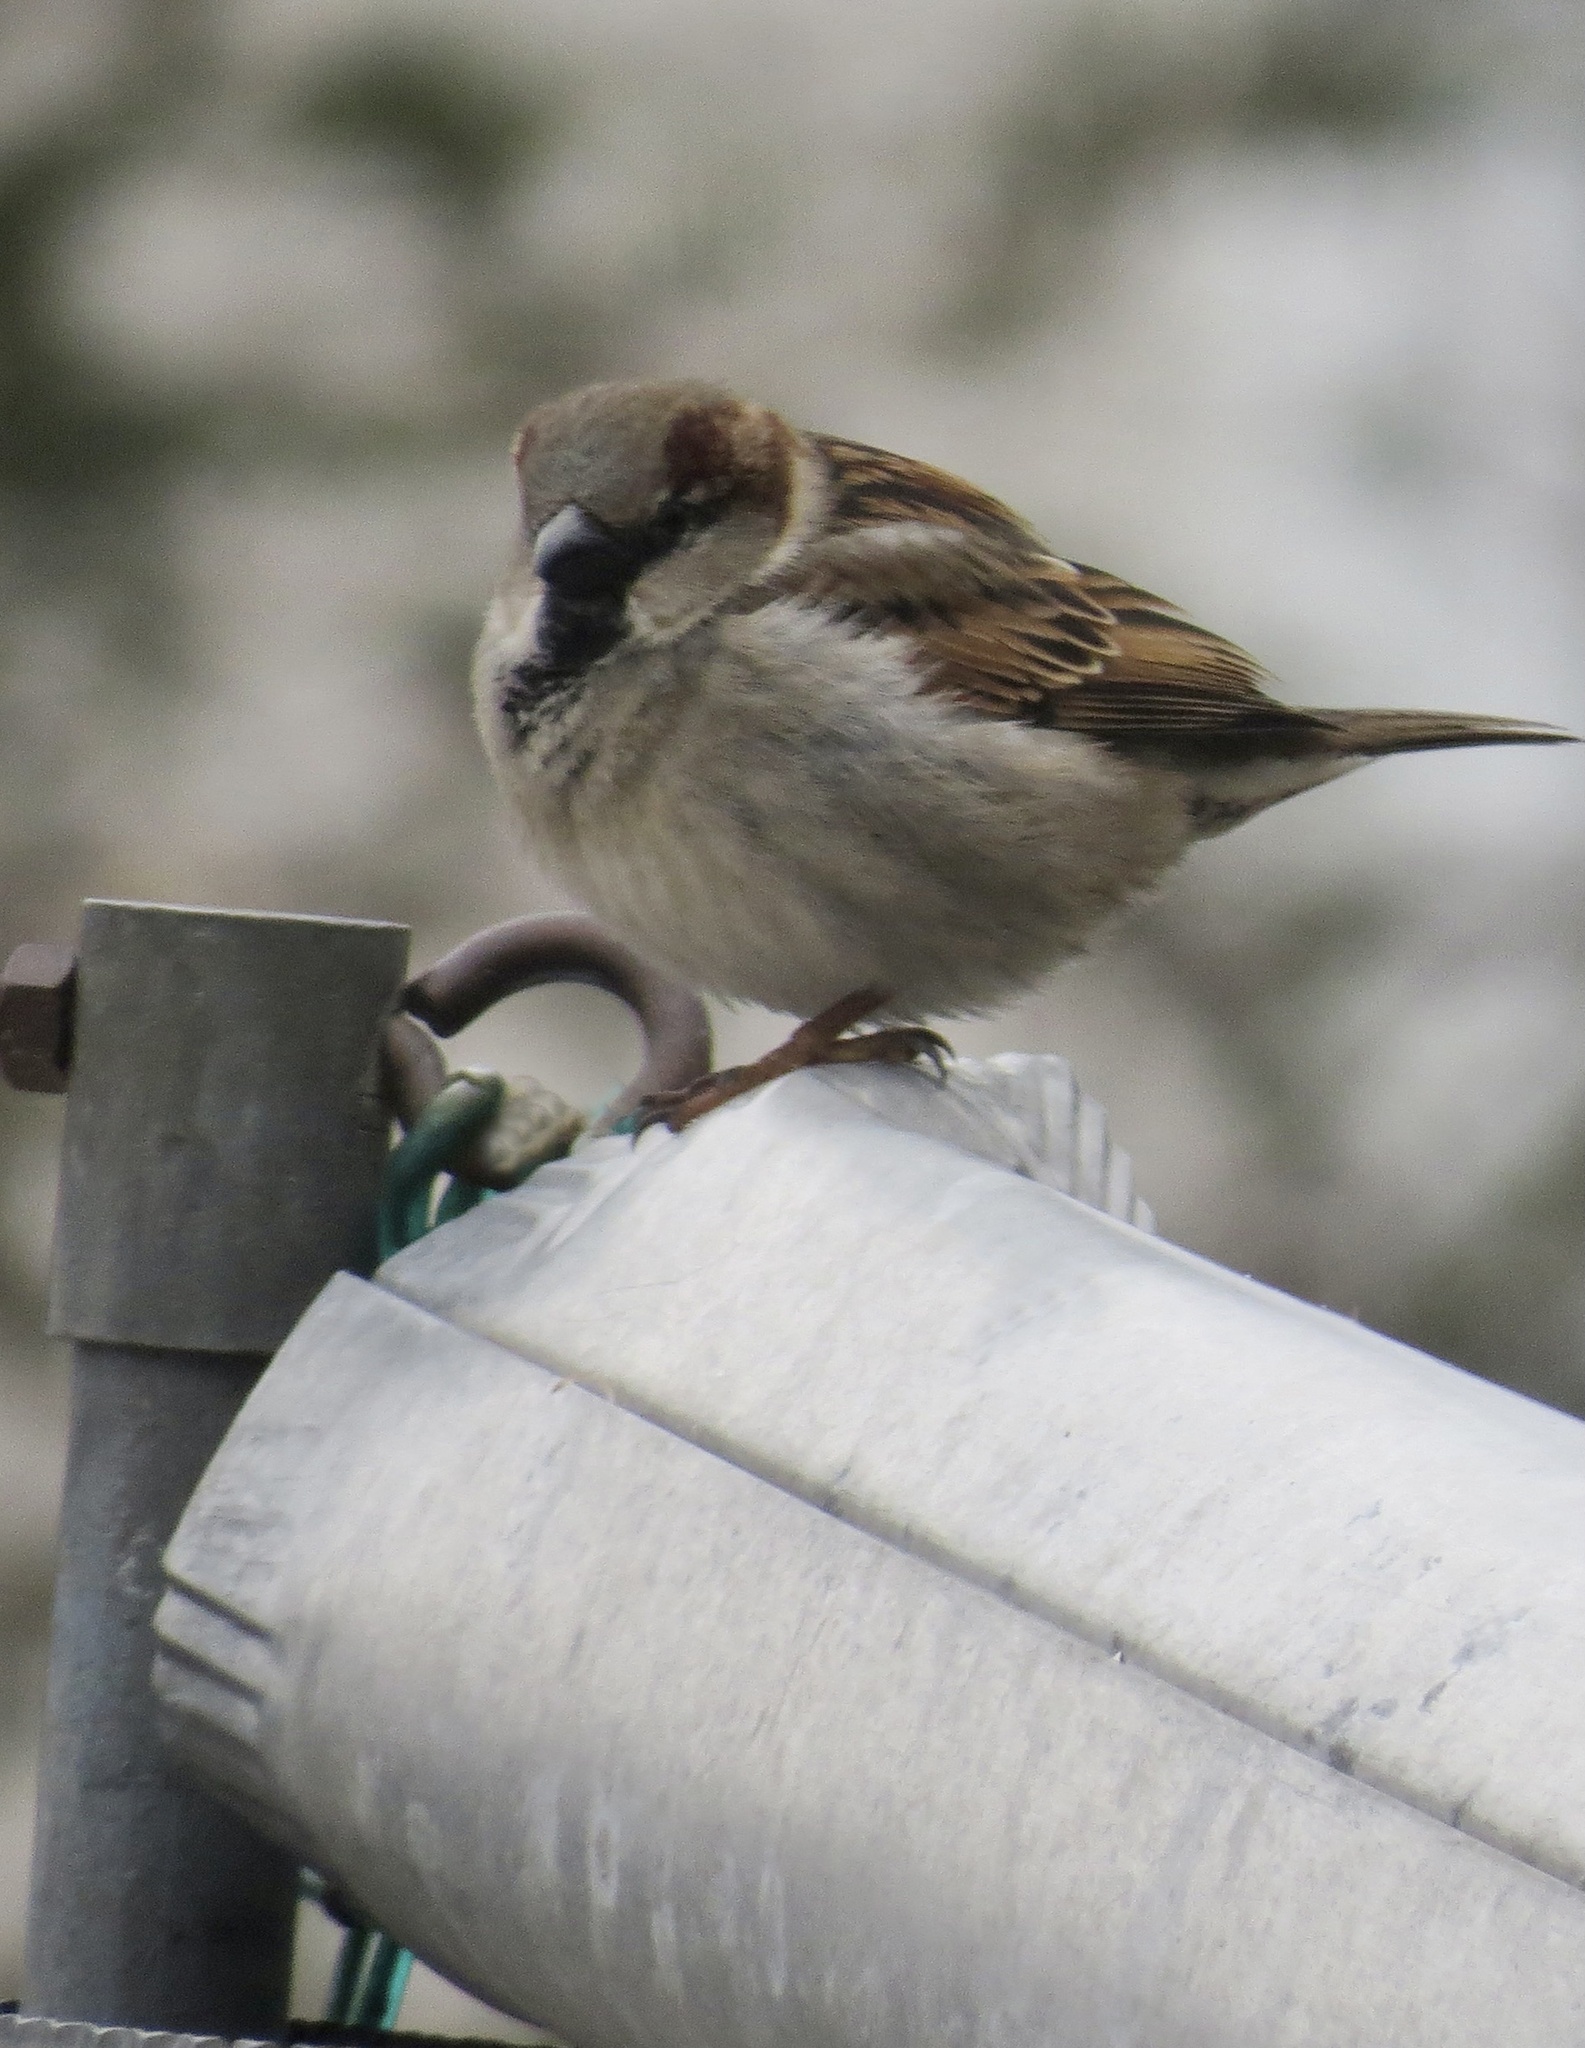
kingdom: Animalia
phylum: Chordata
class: Aves
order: Passeriformes
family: Passeridae
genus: Passer
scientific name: Passer domesticus
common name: House sparrow
